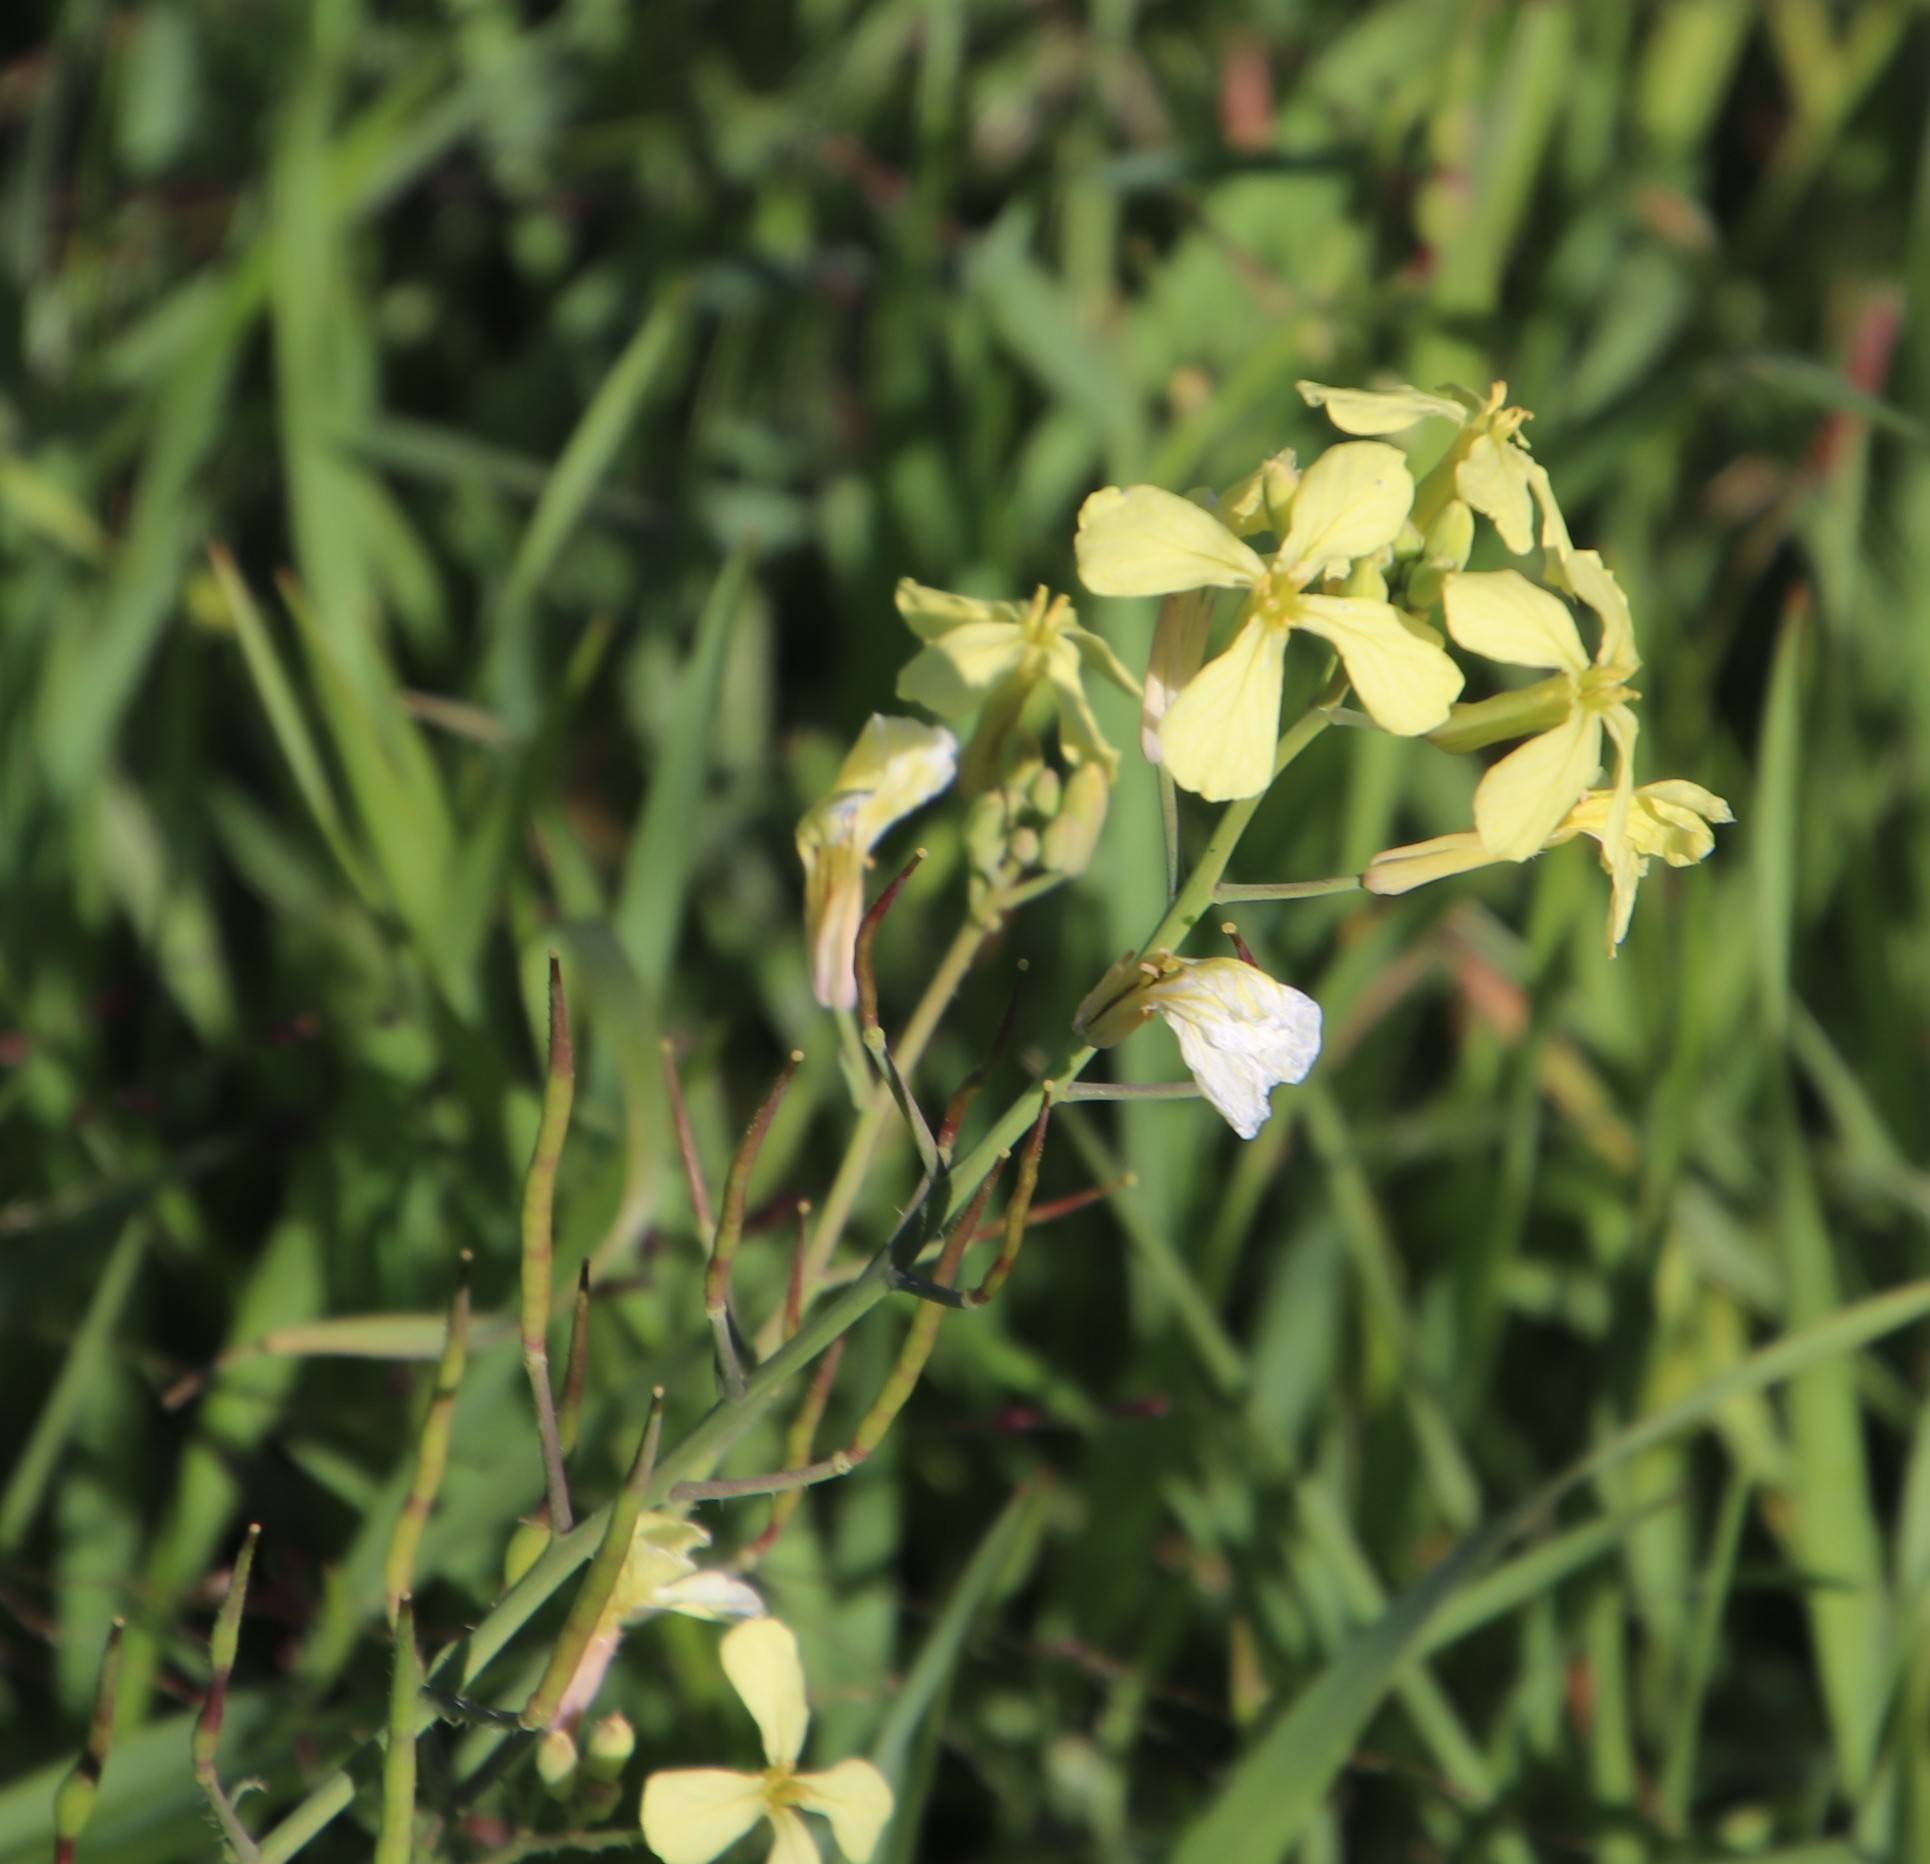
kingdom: Plantae
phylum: Tracheophyta
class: Magnoliopsida
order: Brassicales
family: Brassicaceae
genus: Raphanus
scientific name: Raphanus raphanistrum
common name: Wild radish
